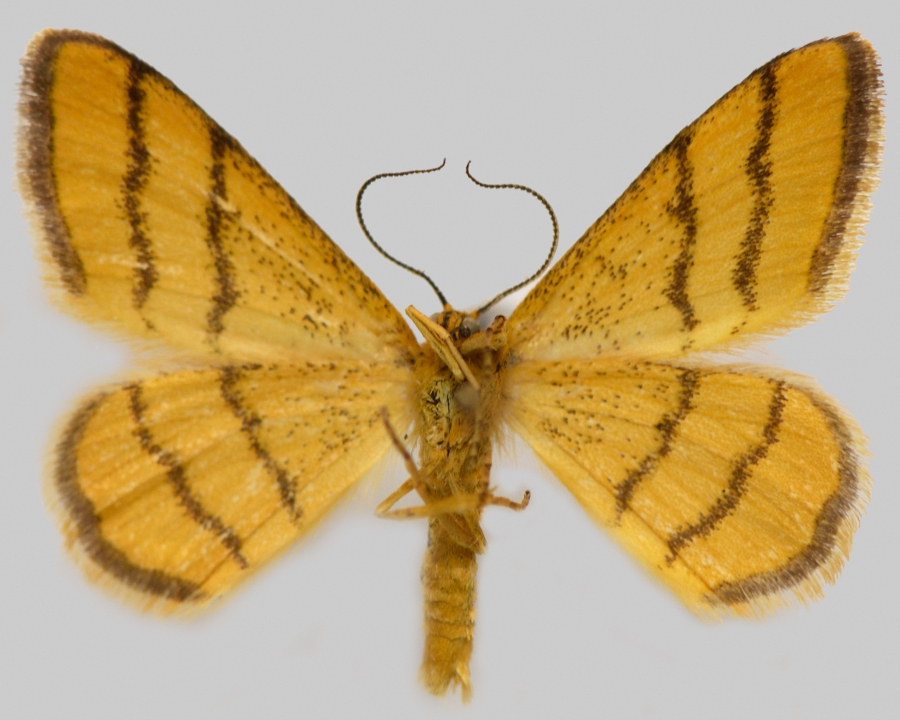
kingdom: Animalia
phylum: Arthropoda
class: Insecta
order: Lepidoptera
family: Geometridae
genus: Idaea
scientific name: Idaea aureolaria
